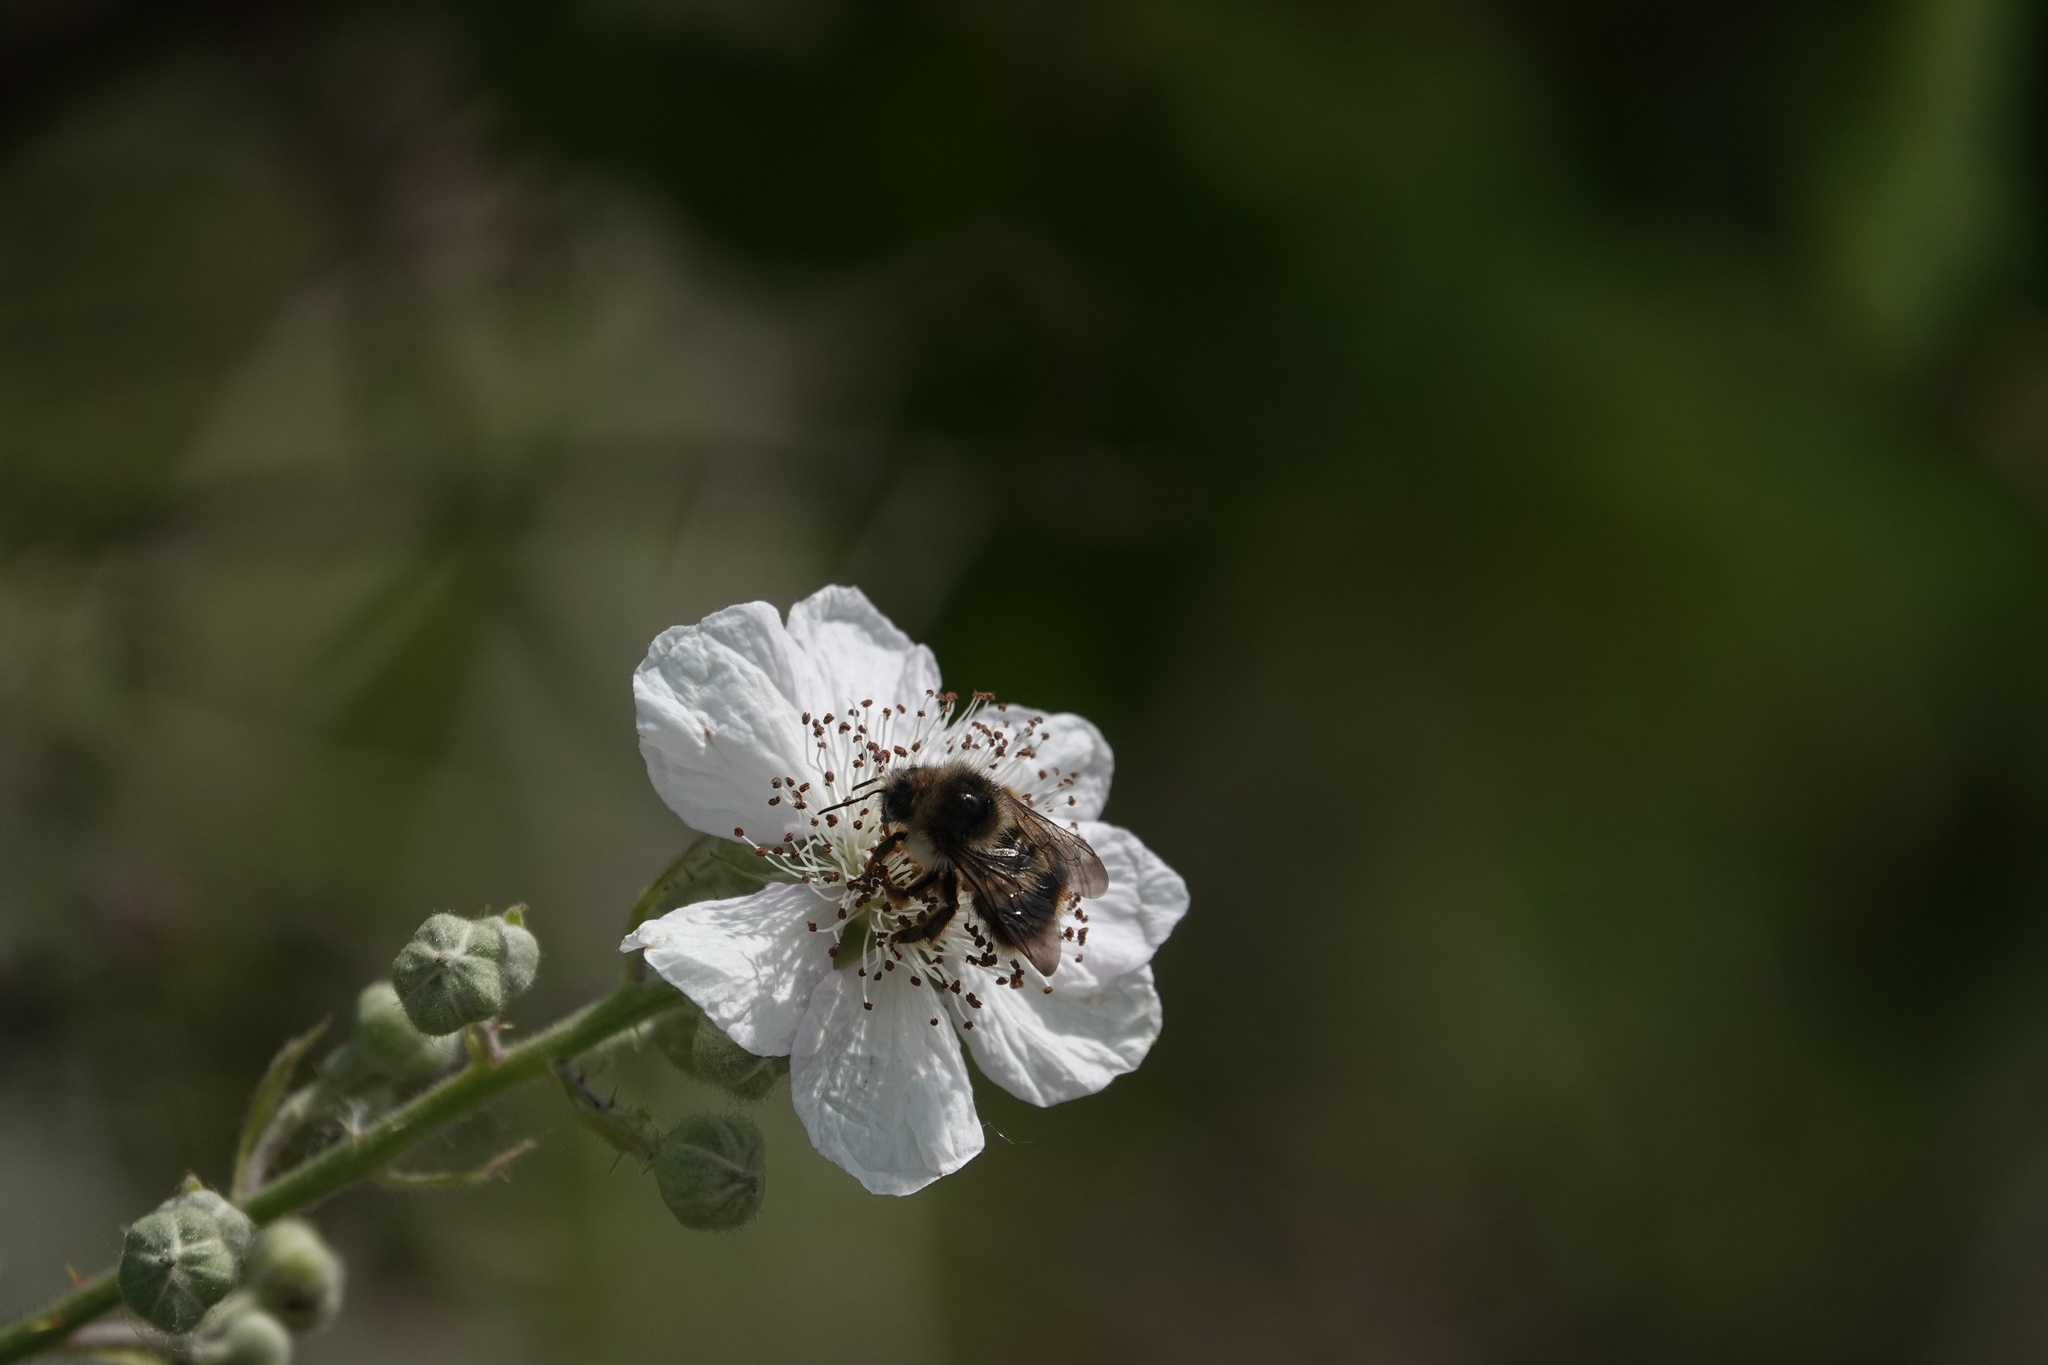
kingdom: Animalia
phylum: Arthropoda
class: Insecta
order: Hymenoptera
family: Apidae
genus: Bombus
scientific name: Bombus mixtus
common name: Fuzzy-horned bumble bee
